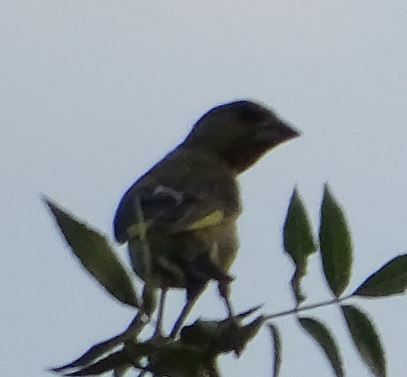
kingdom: Plantae
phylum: Tracheophyta
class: Liliopsida
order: Poales
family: Poaceae
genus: Chloris
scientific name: Chloris chloris
